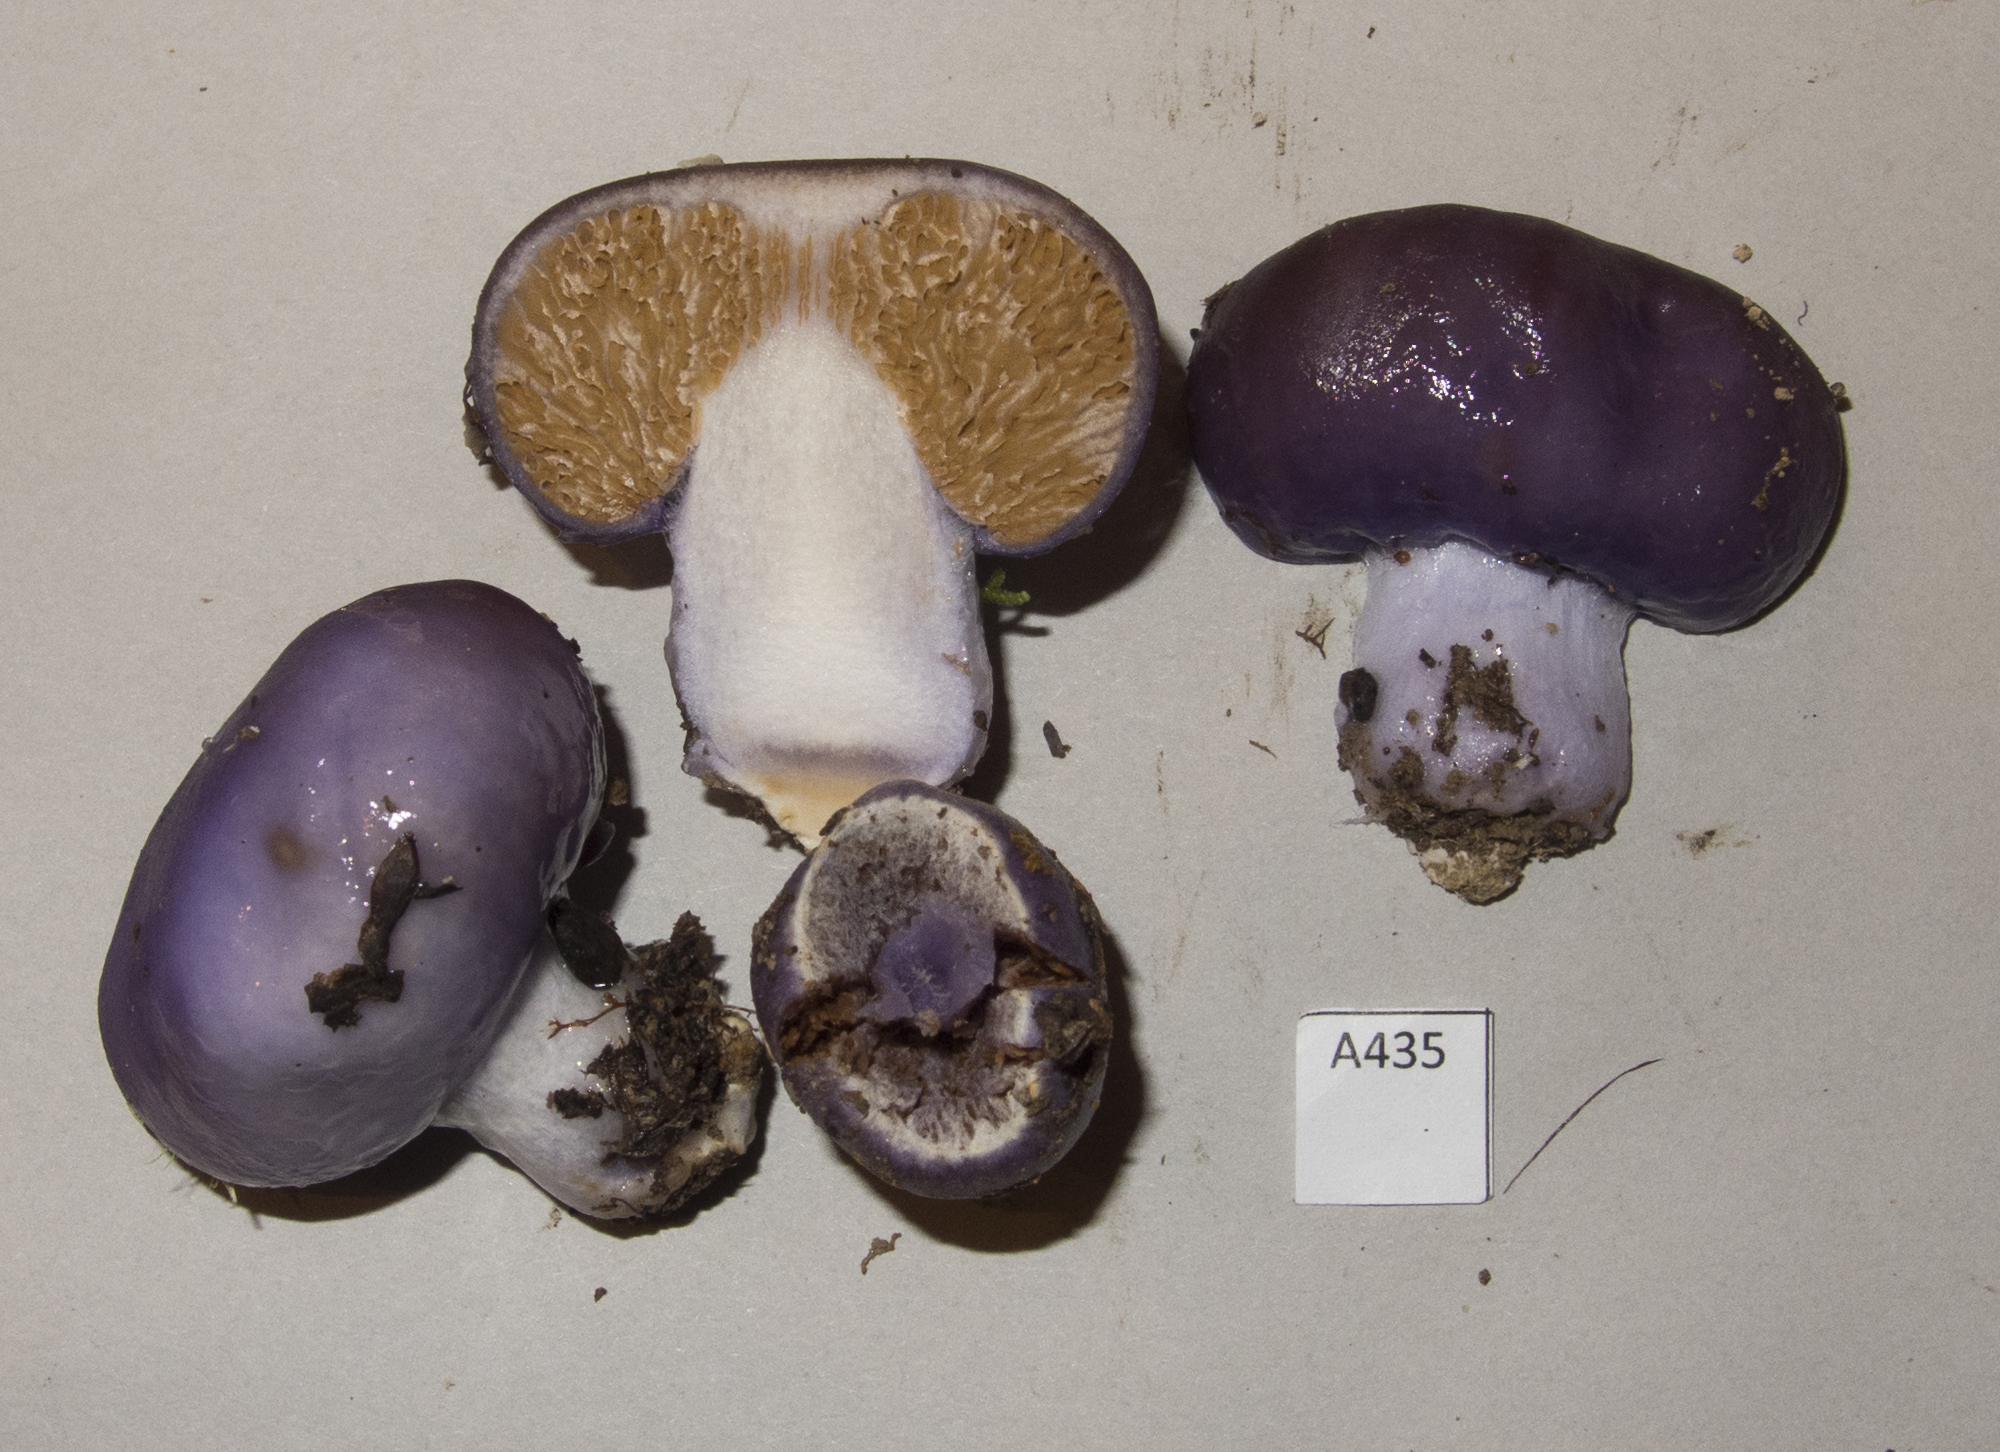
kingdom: Fungi
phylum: Basidiomycota
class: Agaricomycetes
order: Agaricales
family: Cortinariaceae
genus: Cortinarius
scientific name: Cortinarius purpureocapitatus
